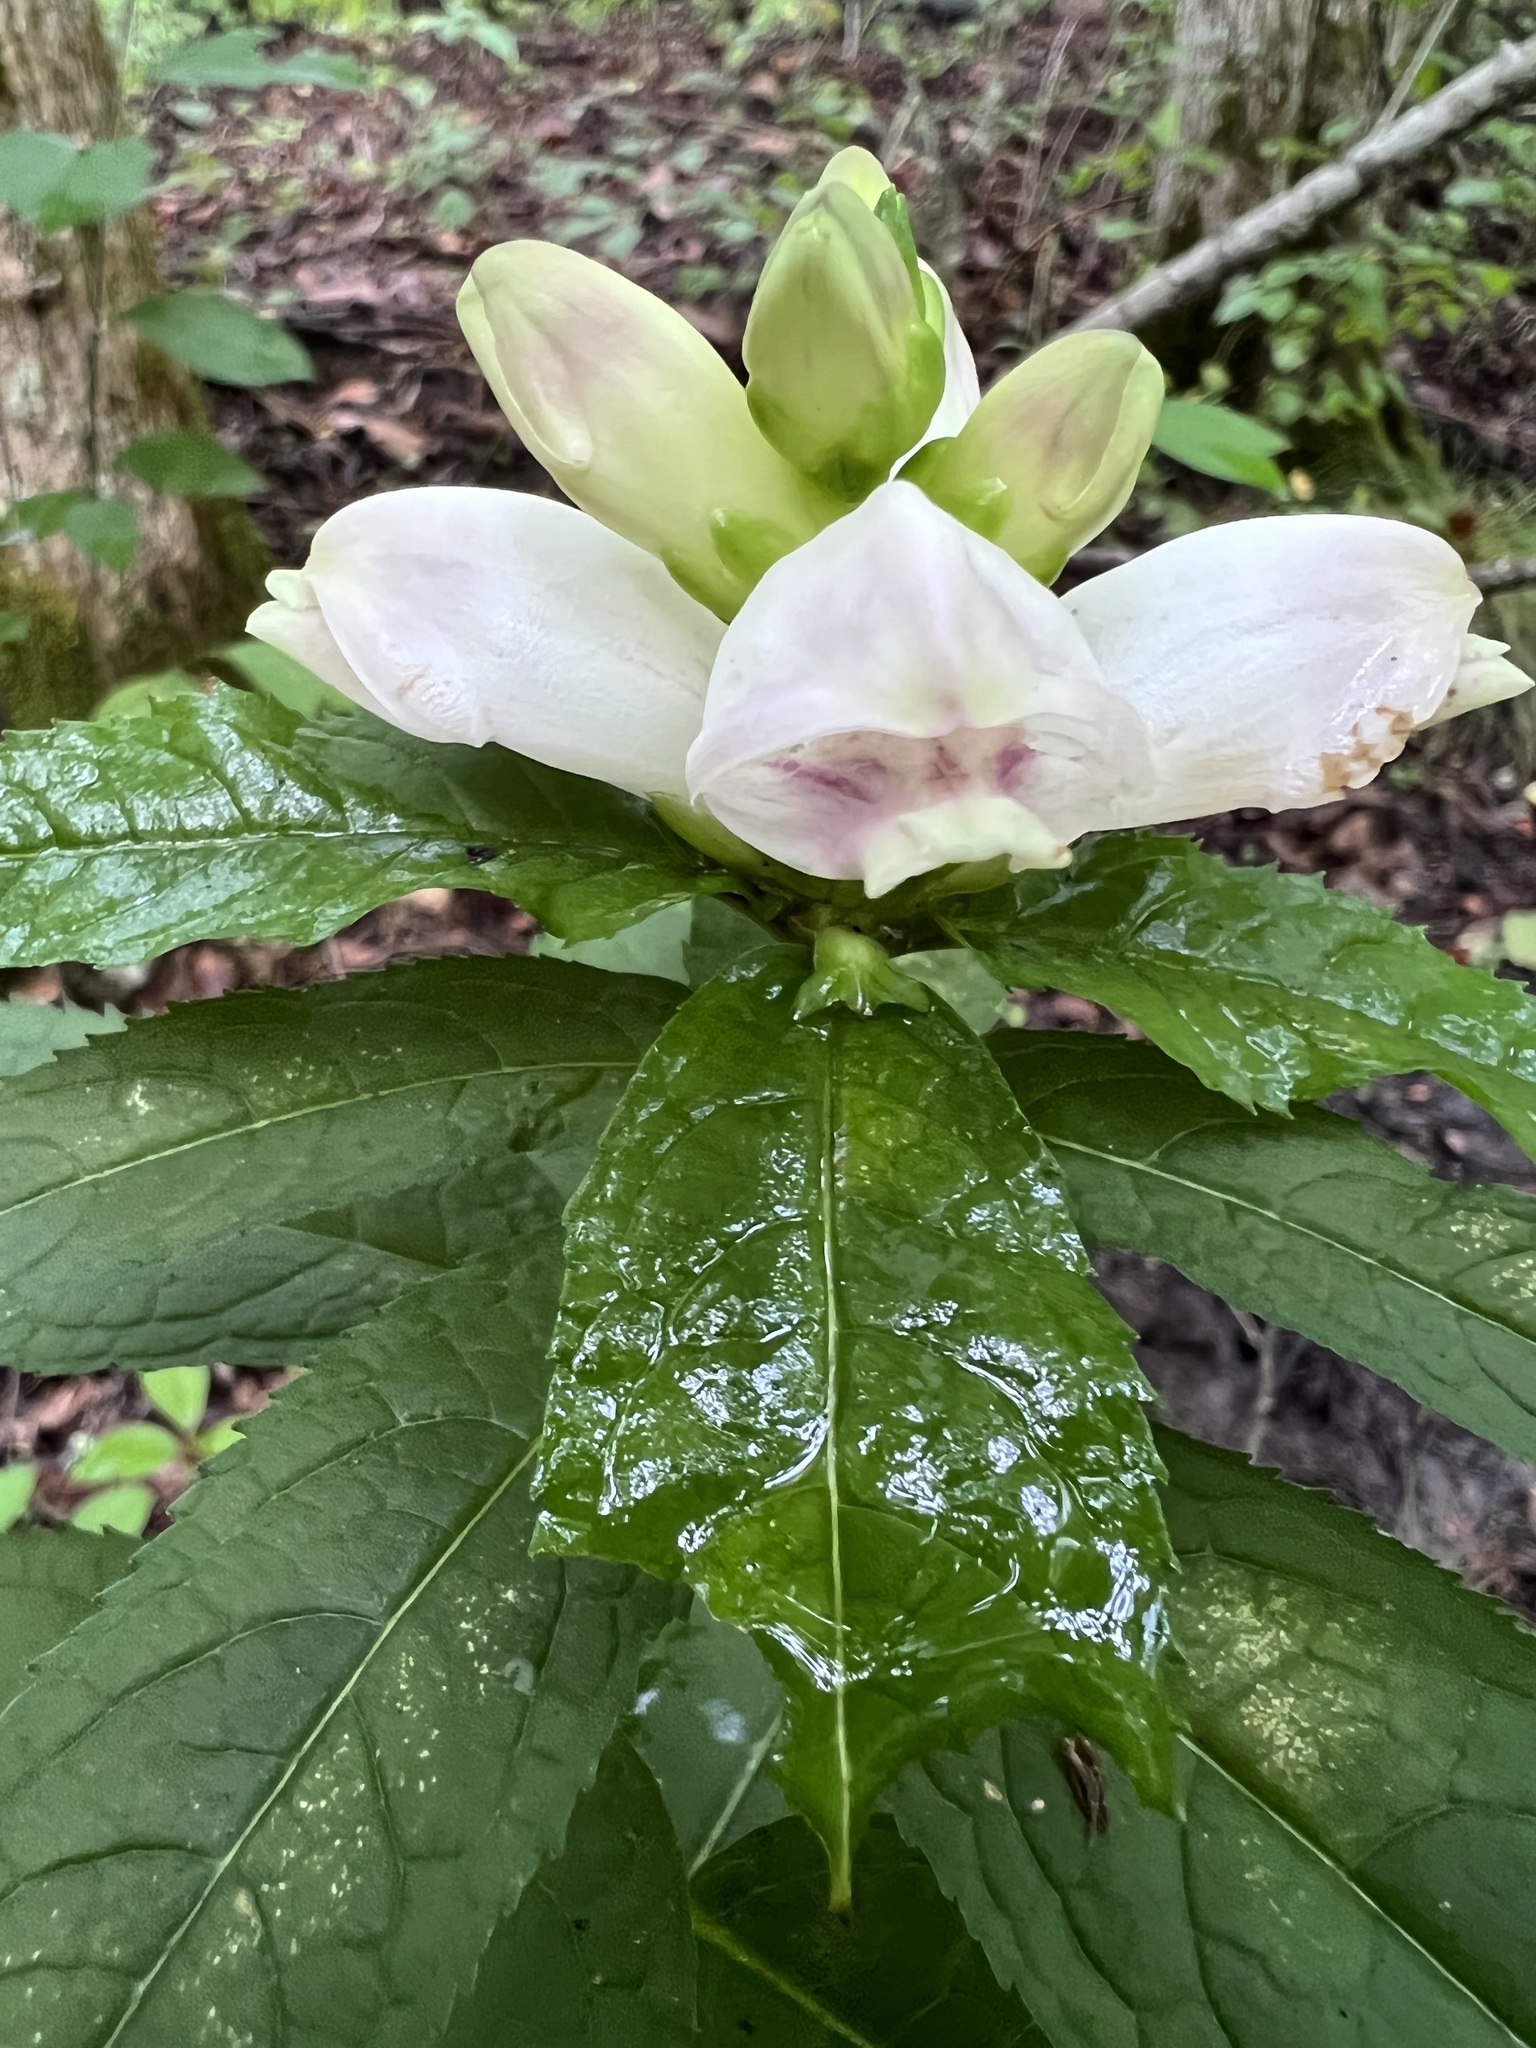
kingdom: Plantae
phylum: Tracheophyta
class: Magnoliopsida
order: Lamiales
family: Plantaginaceae
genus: Chelone
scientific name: Chelone glabra
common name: Snakehead
